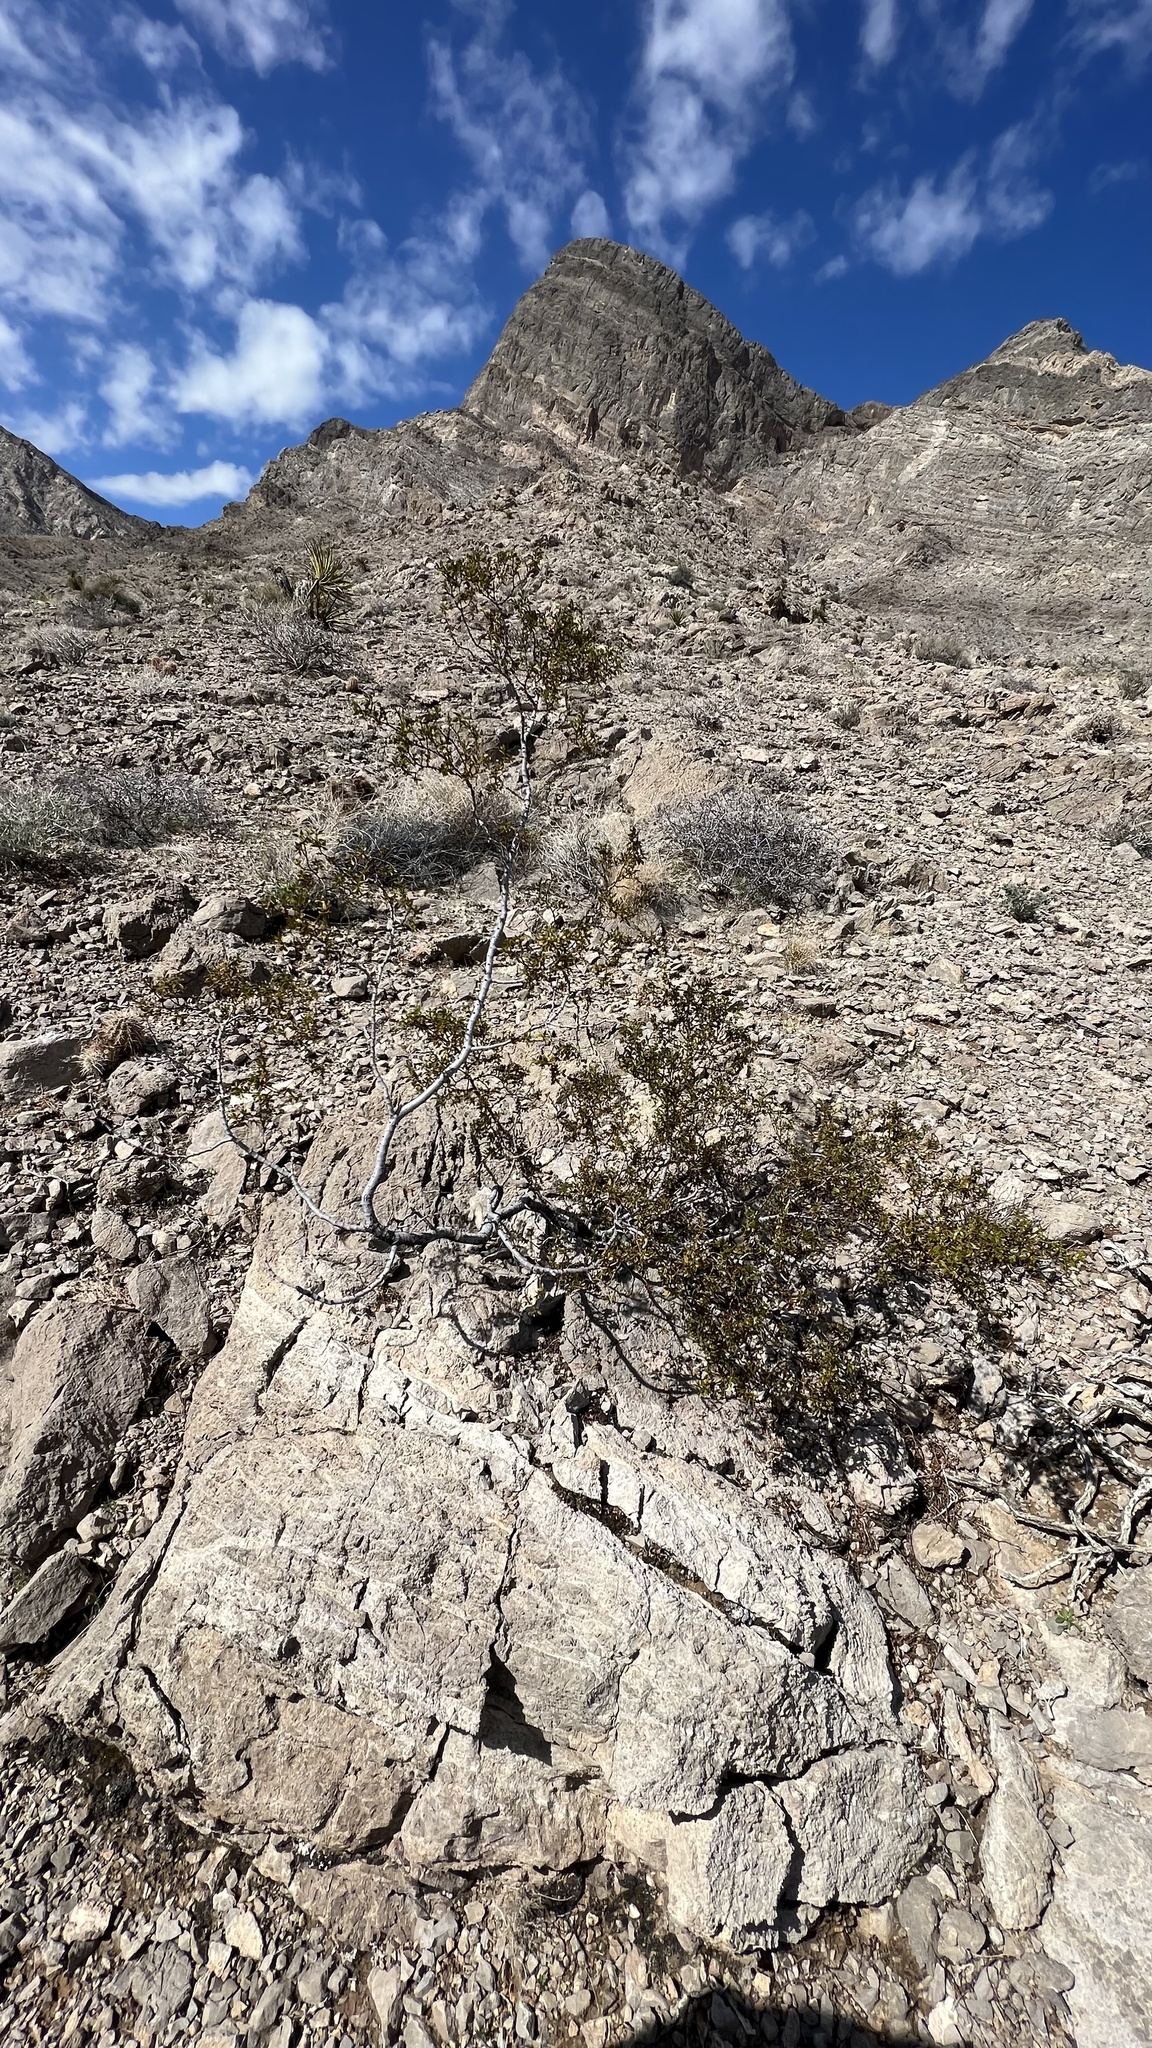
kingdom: Plantae
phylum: Tracheophyta
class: Magnoliopsida
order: Zygophyllales
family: Zygophyllaceae
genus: Larrea
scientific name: Larrea tridentata
